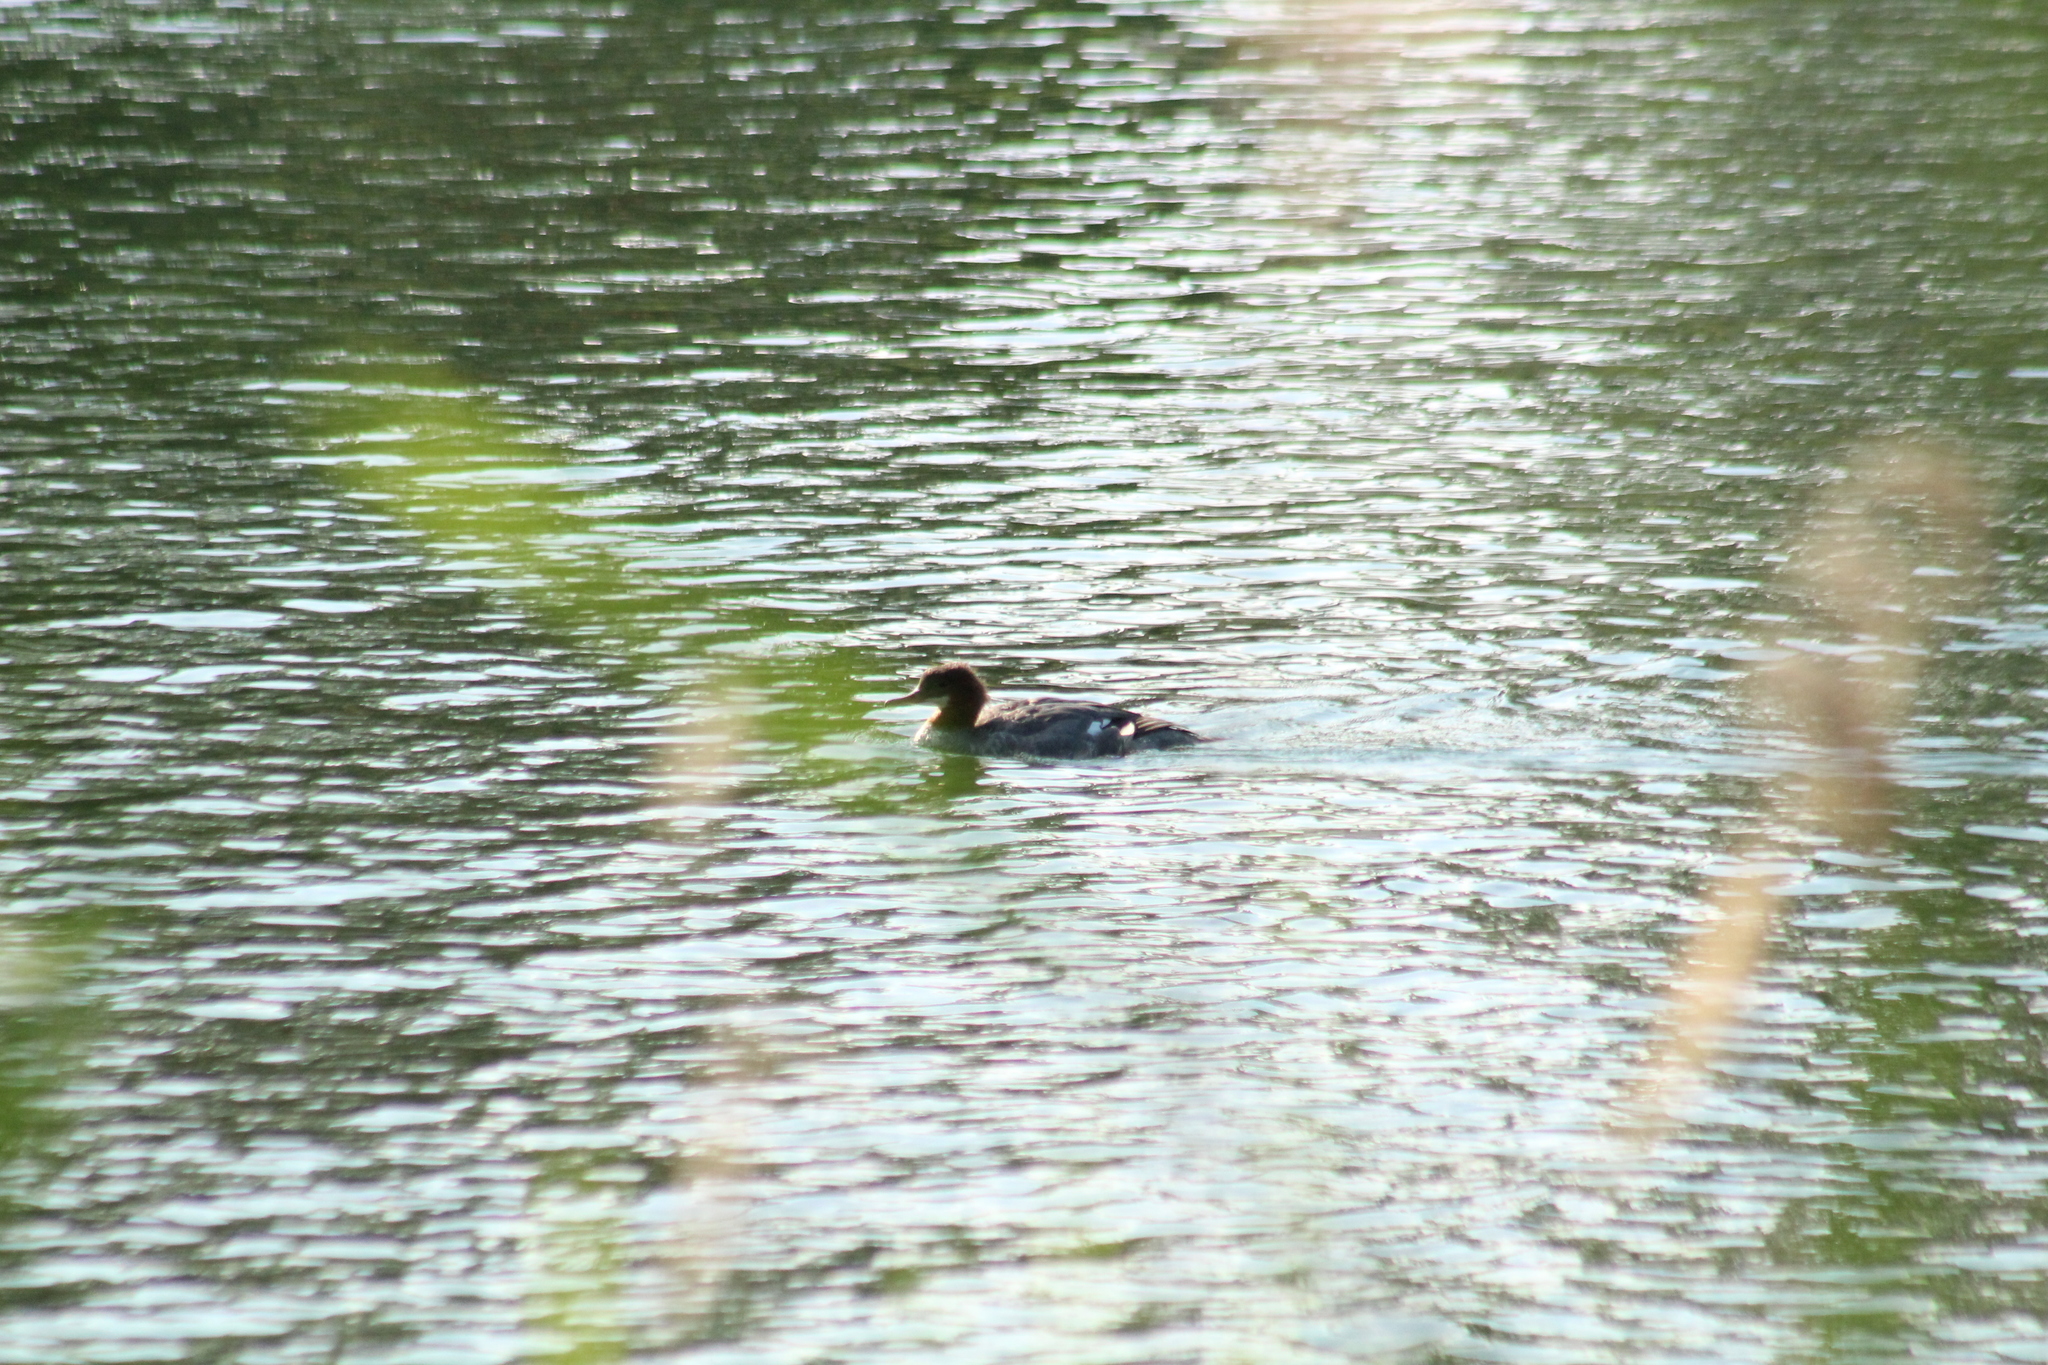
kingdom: Animalia
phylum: Chordata
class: Aves
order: Anseriformes
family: Anatidae
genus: Mergus
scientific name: Mergus merganser
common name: Common merganser
